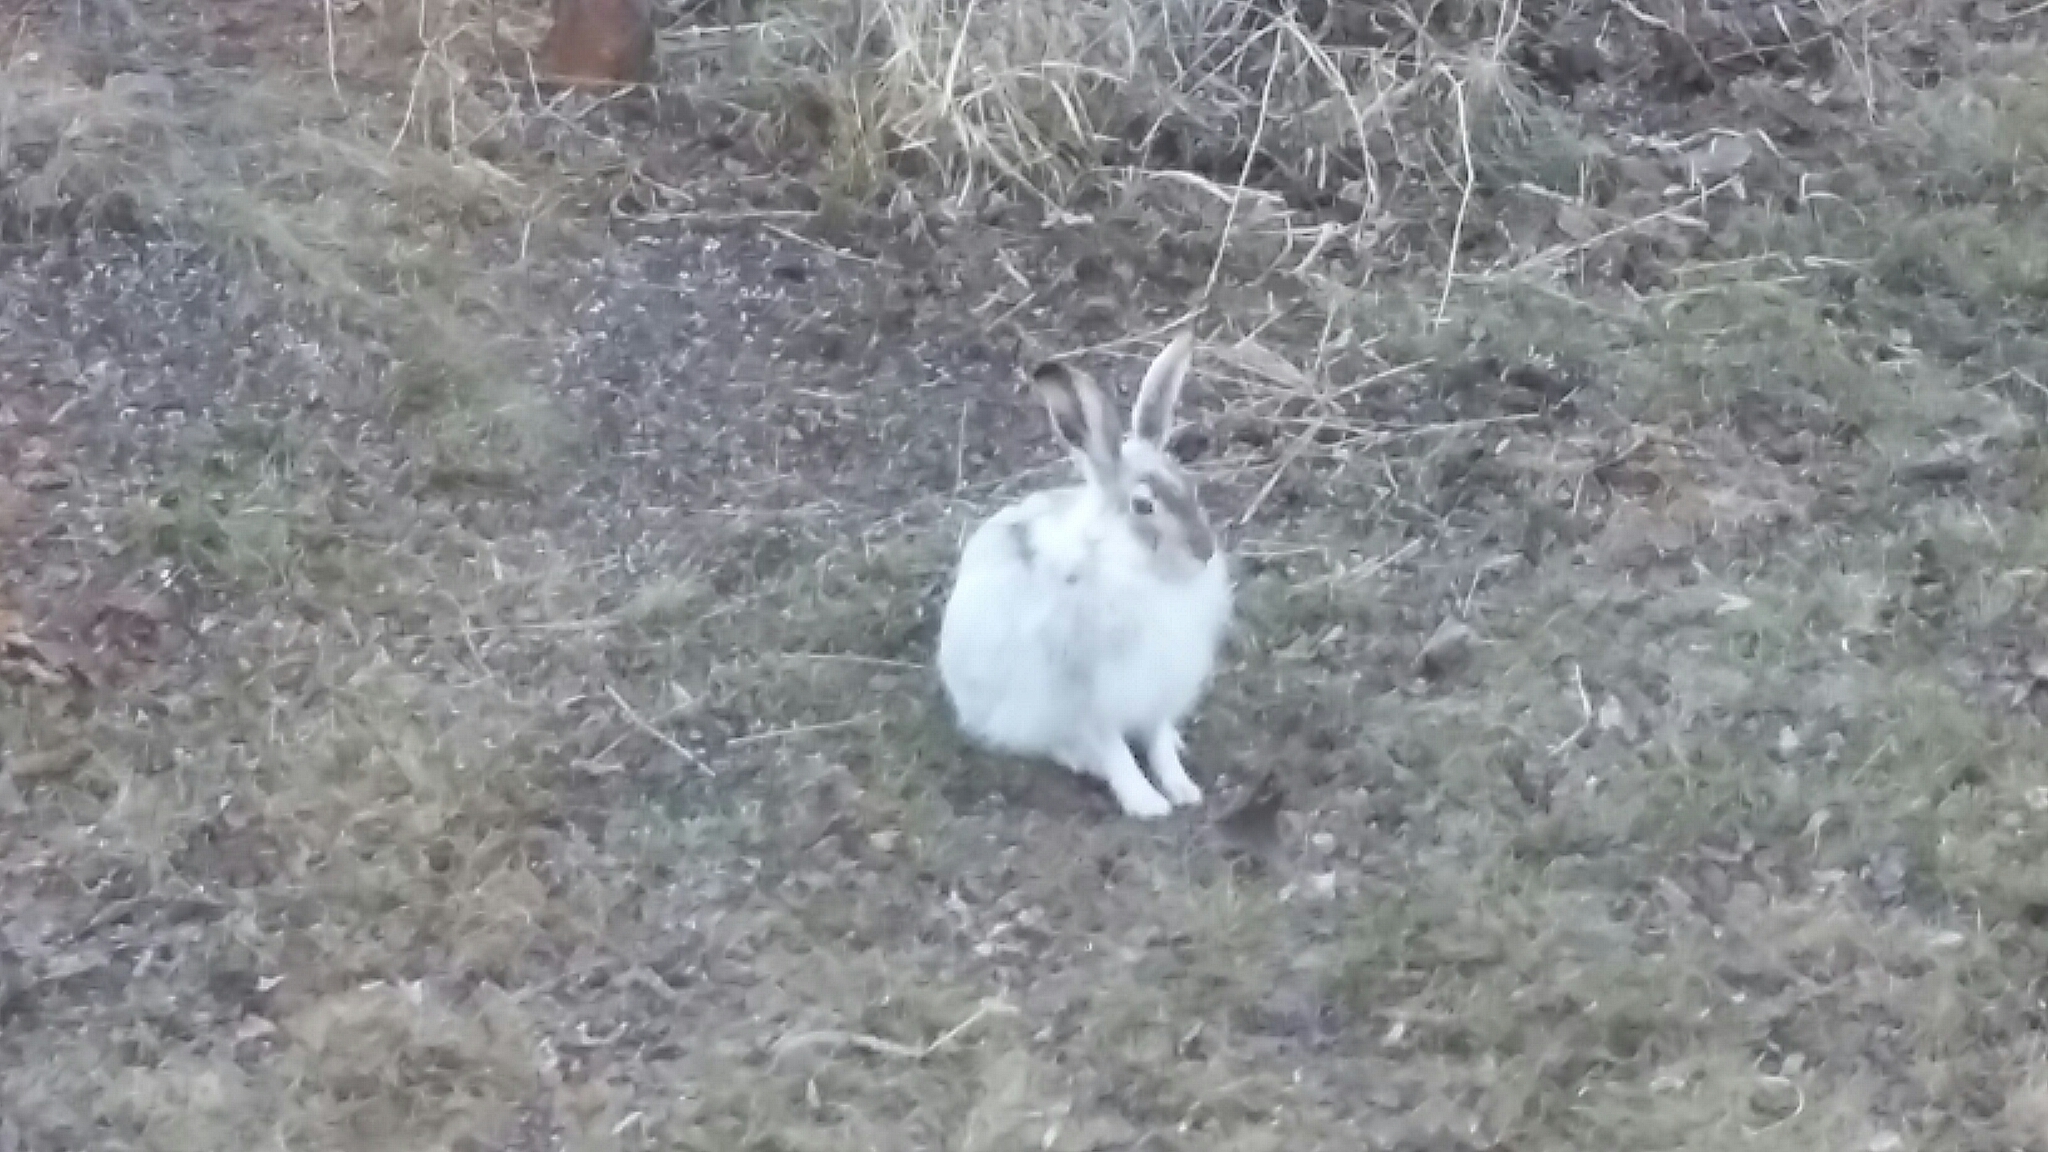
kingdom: Animalia
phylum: Chordata
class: Mammalia
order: Lagomorpha
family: Leporidae
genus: Lepus
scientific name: Lepus townsendii
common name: White-tailed jackrabbit
